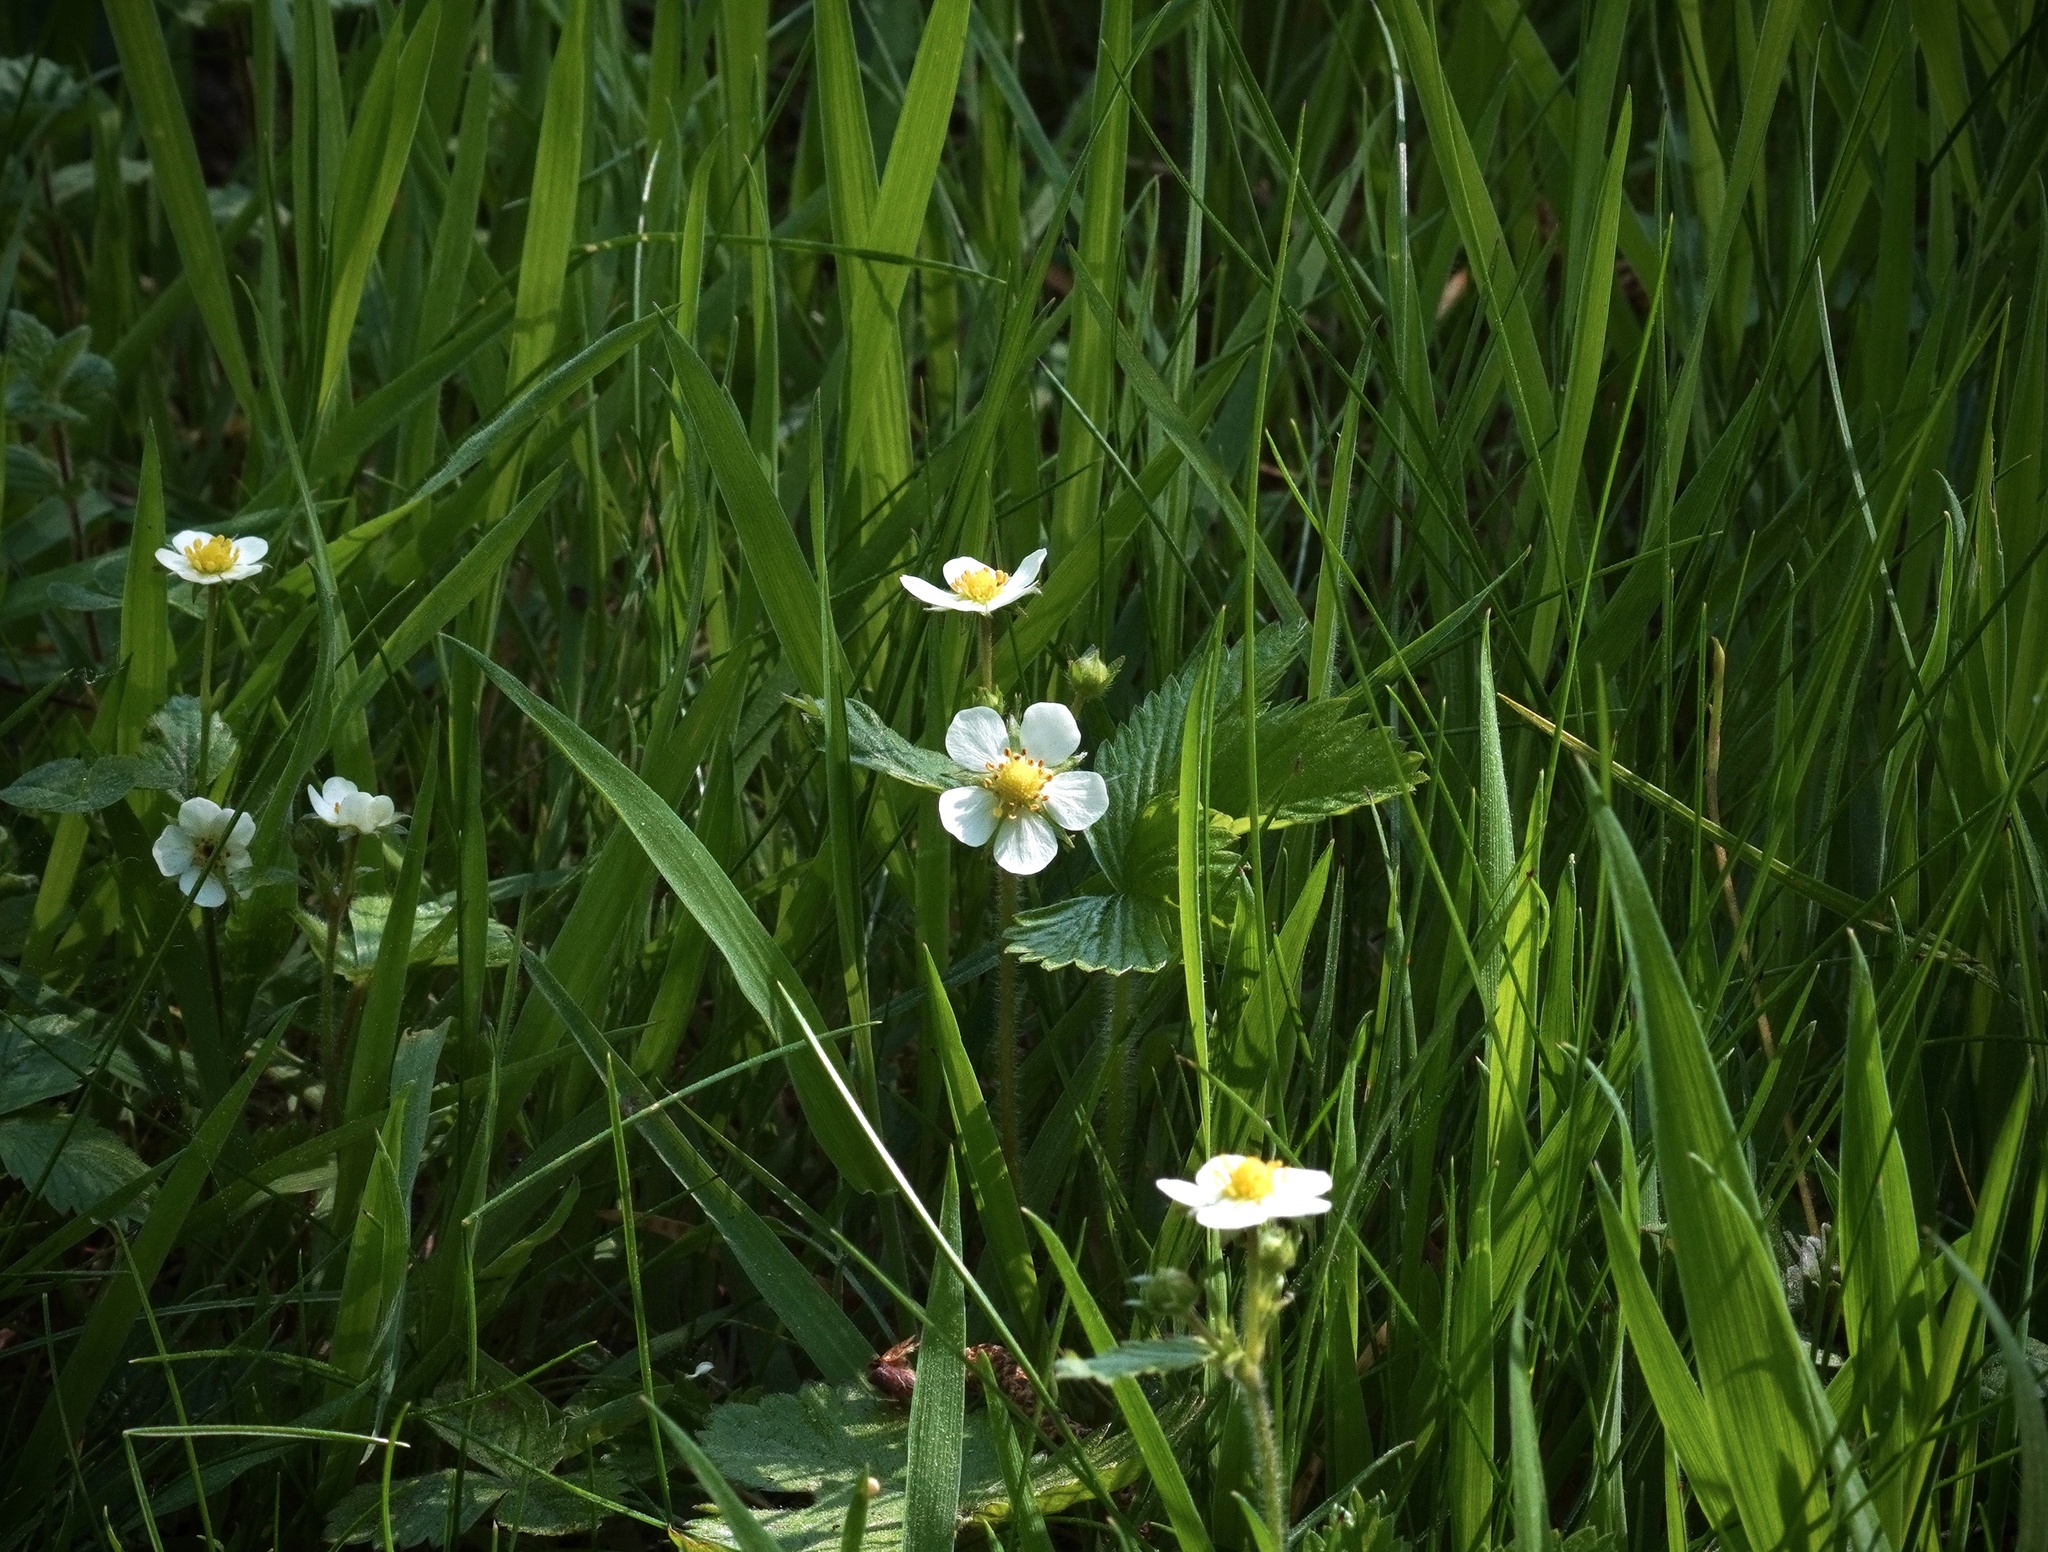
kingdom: Plantae
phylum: Tracheophyta
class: Magnoliopsida
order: Rosales
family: Rosaceae
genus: Fragaria
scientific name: Fragaria vesca
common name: Wild strawberry
